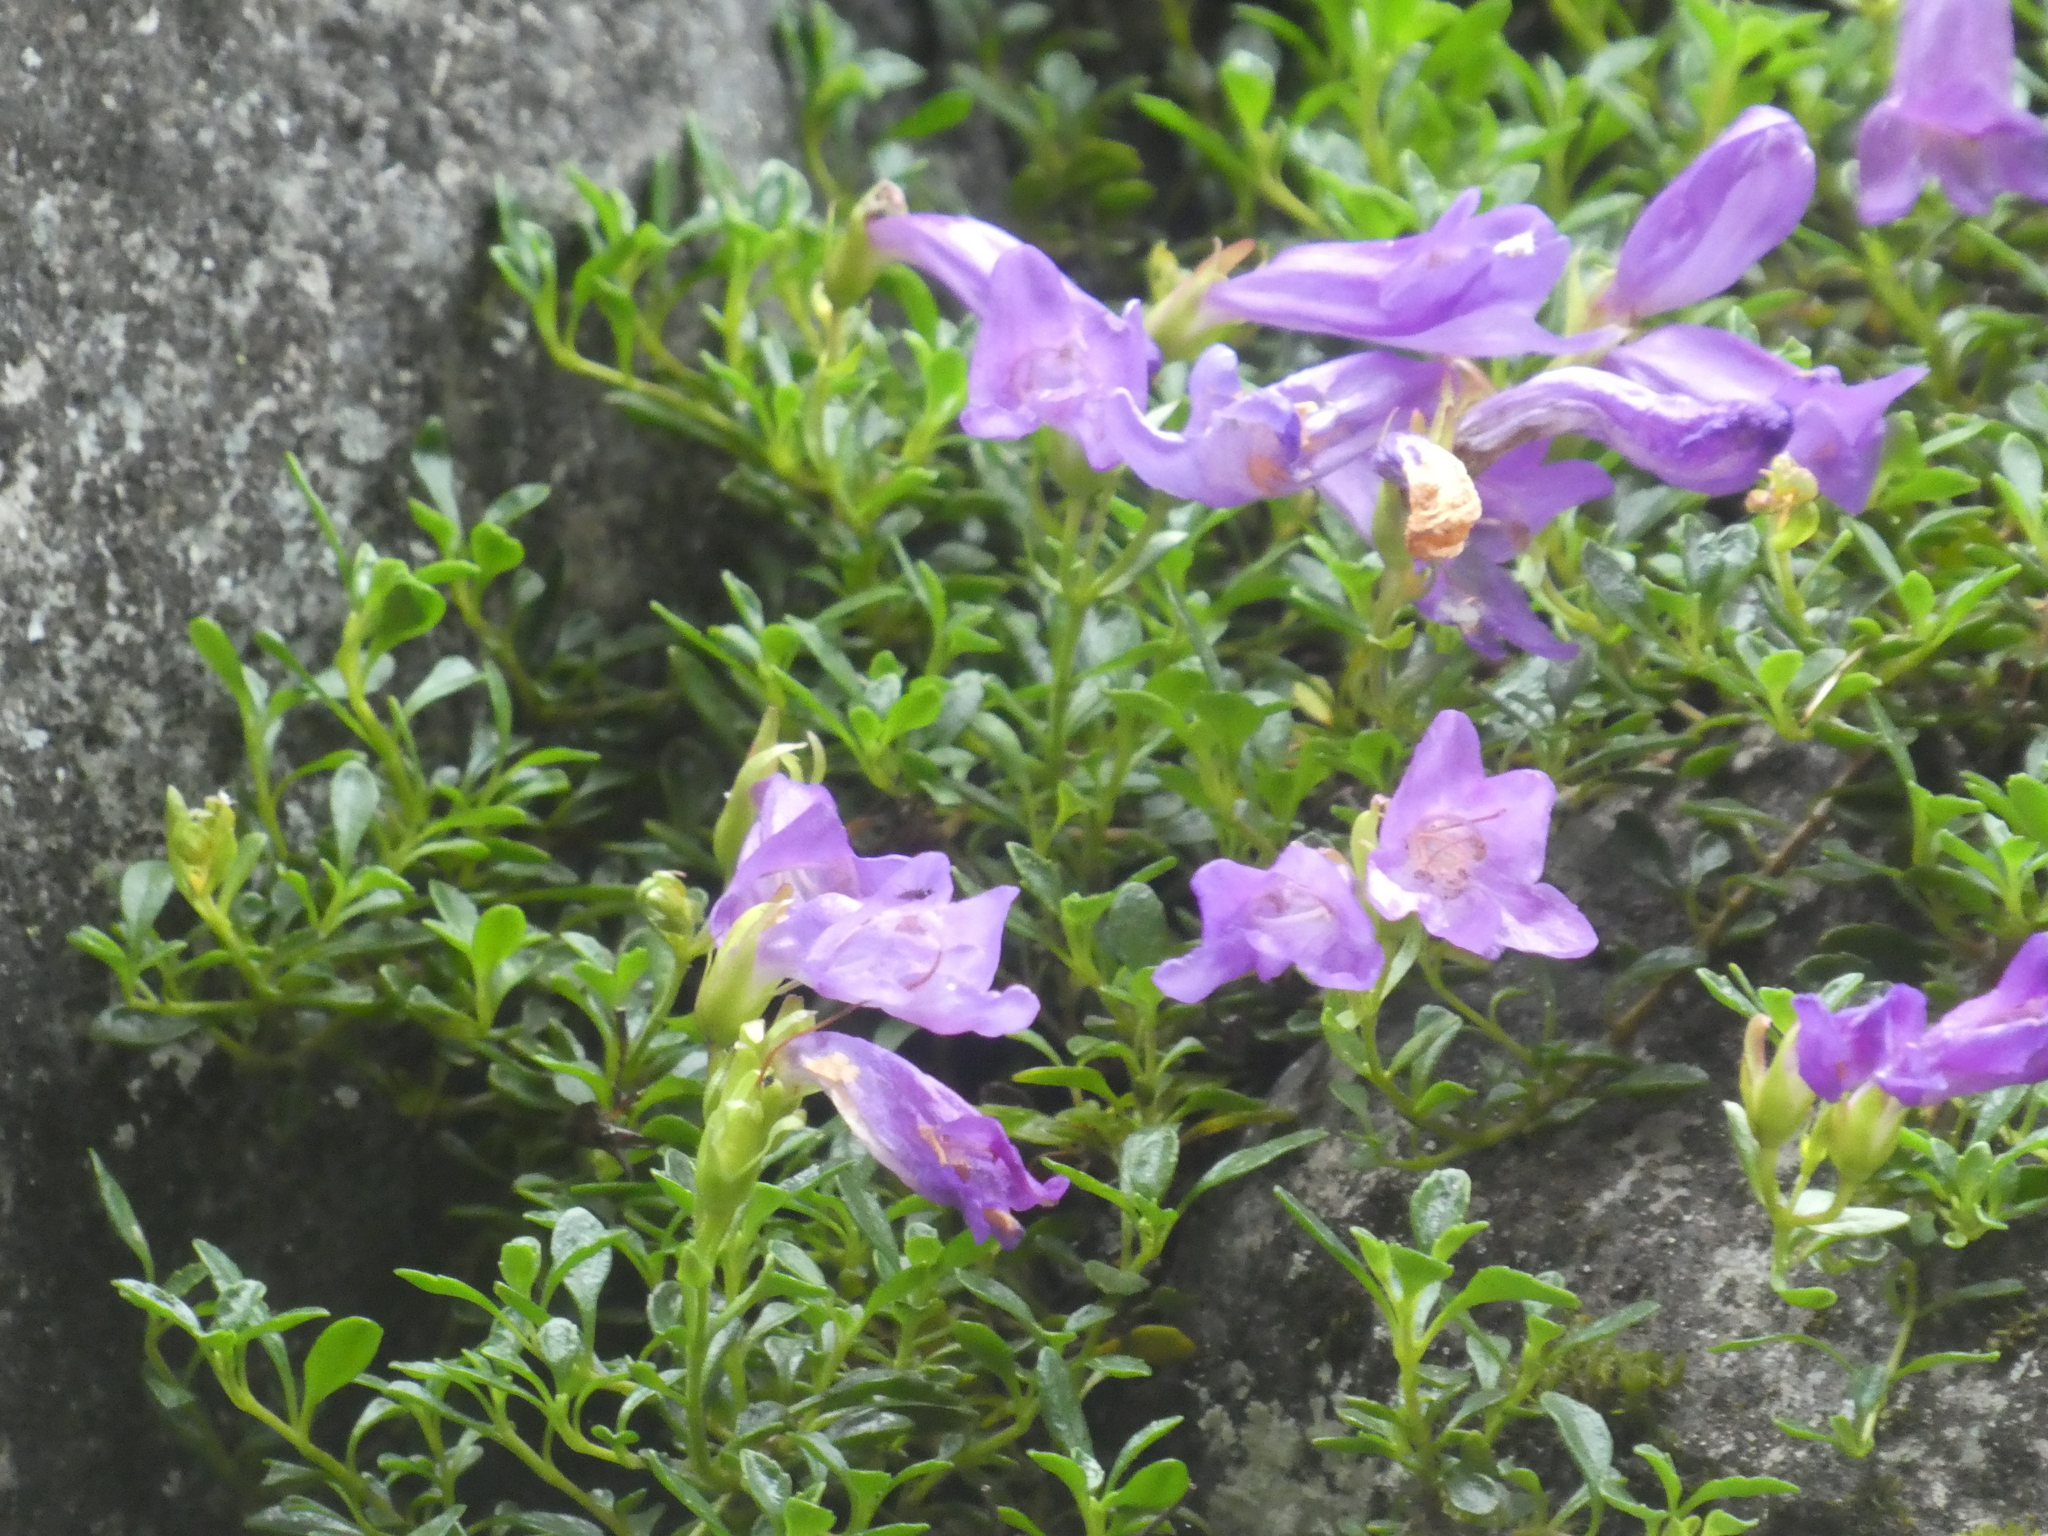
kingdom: Plantae
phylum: Tracheophyta
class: Magnoliopsida
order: Lamiales
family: Plantaginaceae
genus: Penstemon
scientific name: Penstemon davidsonii
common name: Davidson's penstemon
